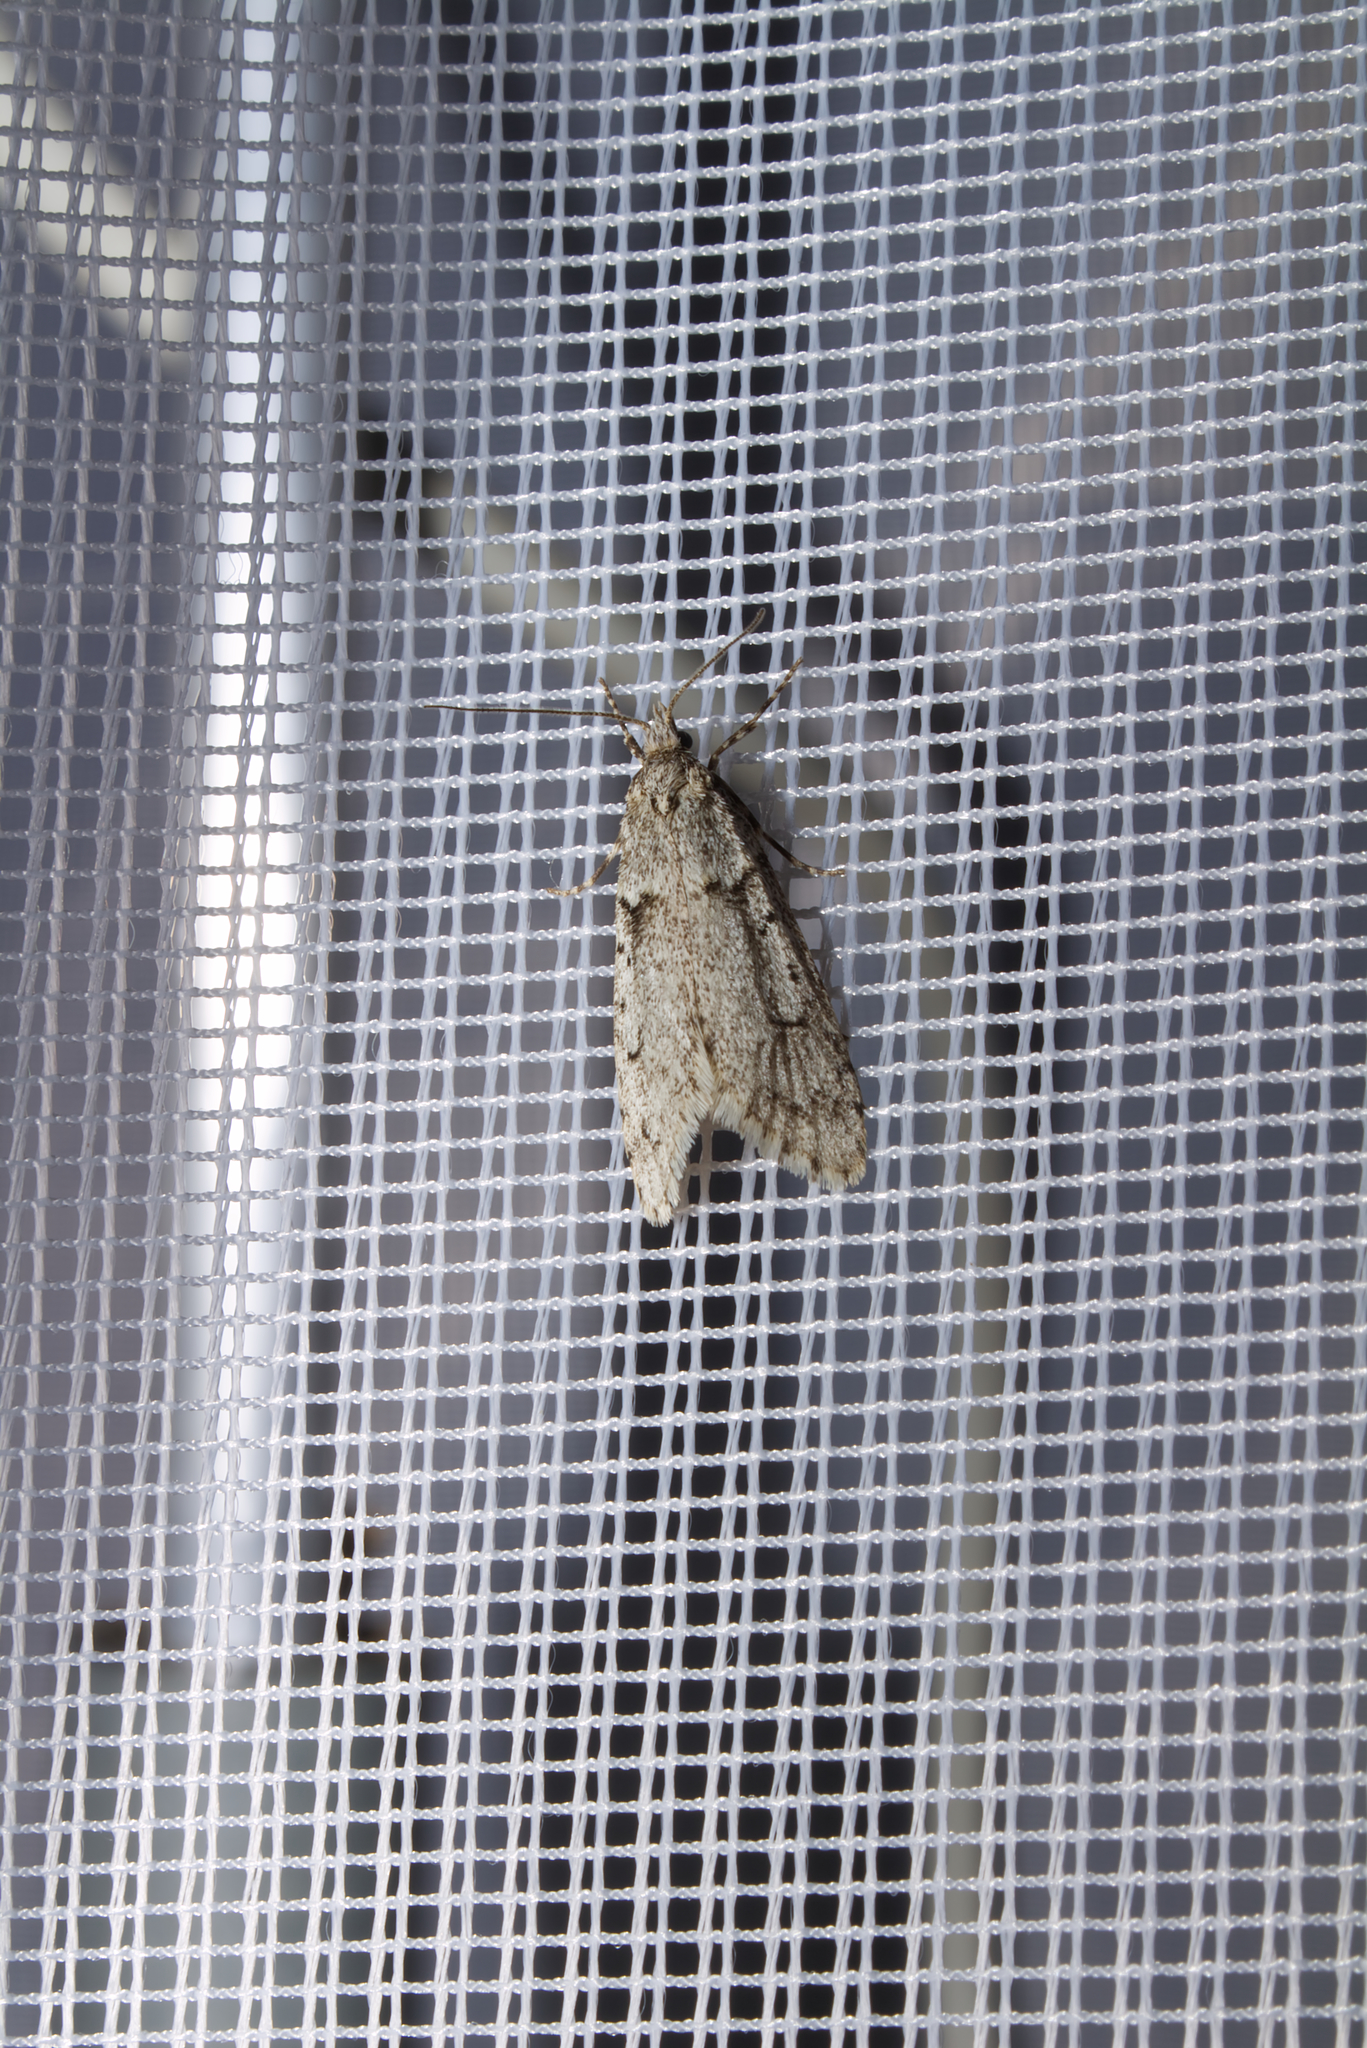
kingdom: Animalia
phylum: Arthropoda
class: Insecta
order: Lepidoptera
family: Lypusidae
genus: Diurnea
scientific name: Diurnea fagella
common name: March tubic
